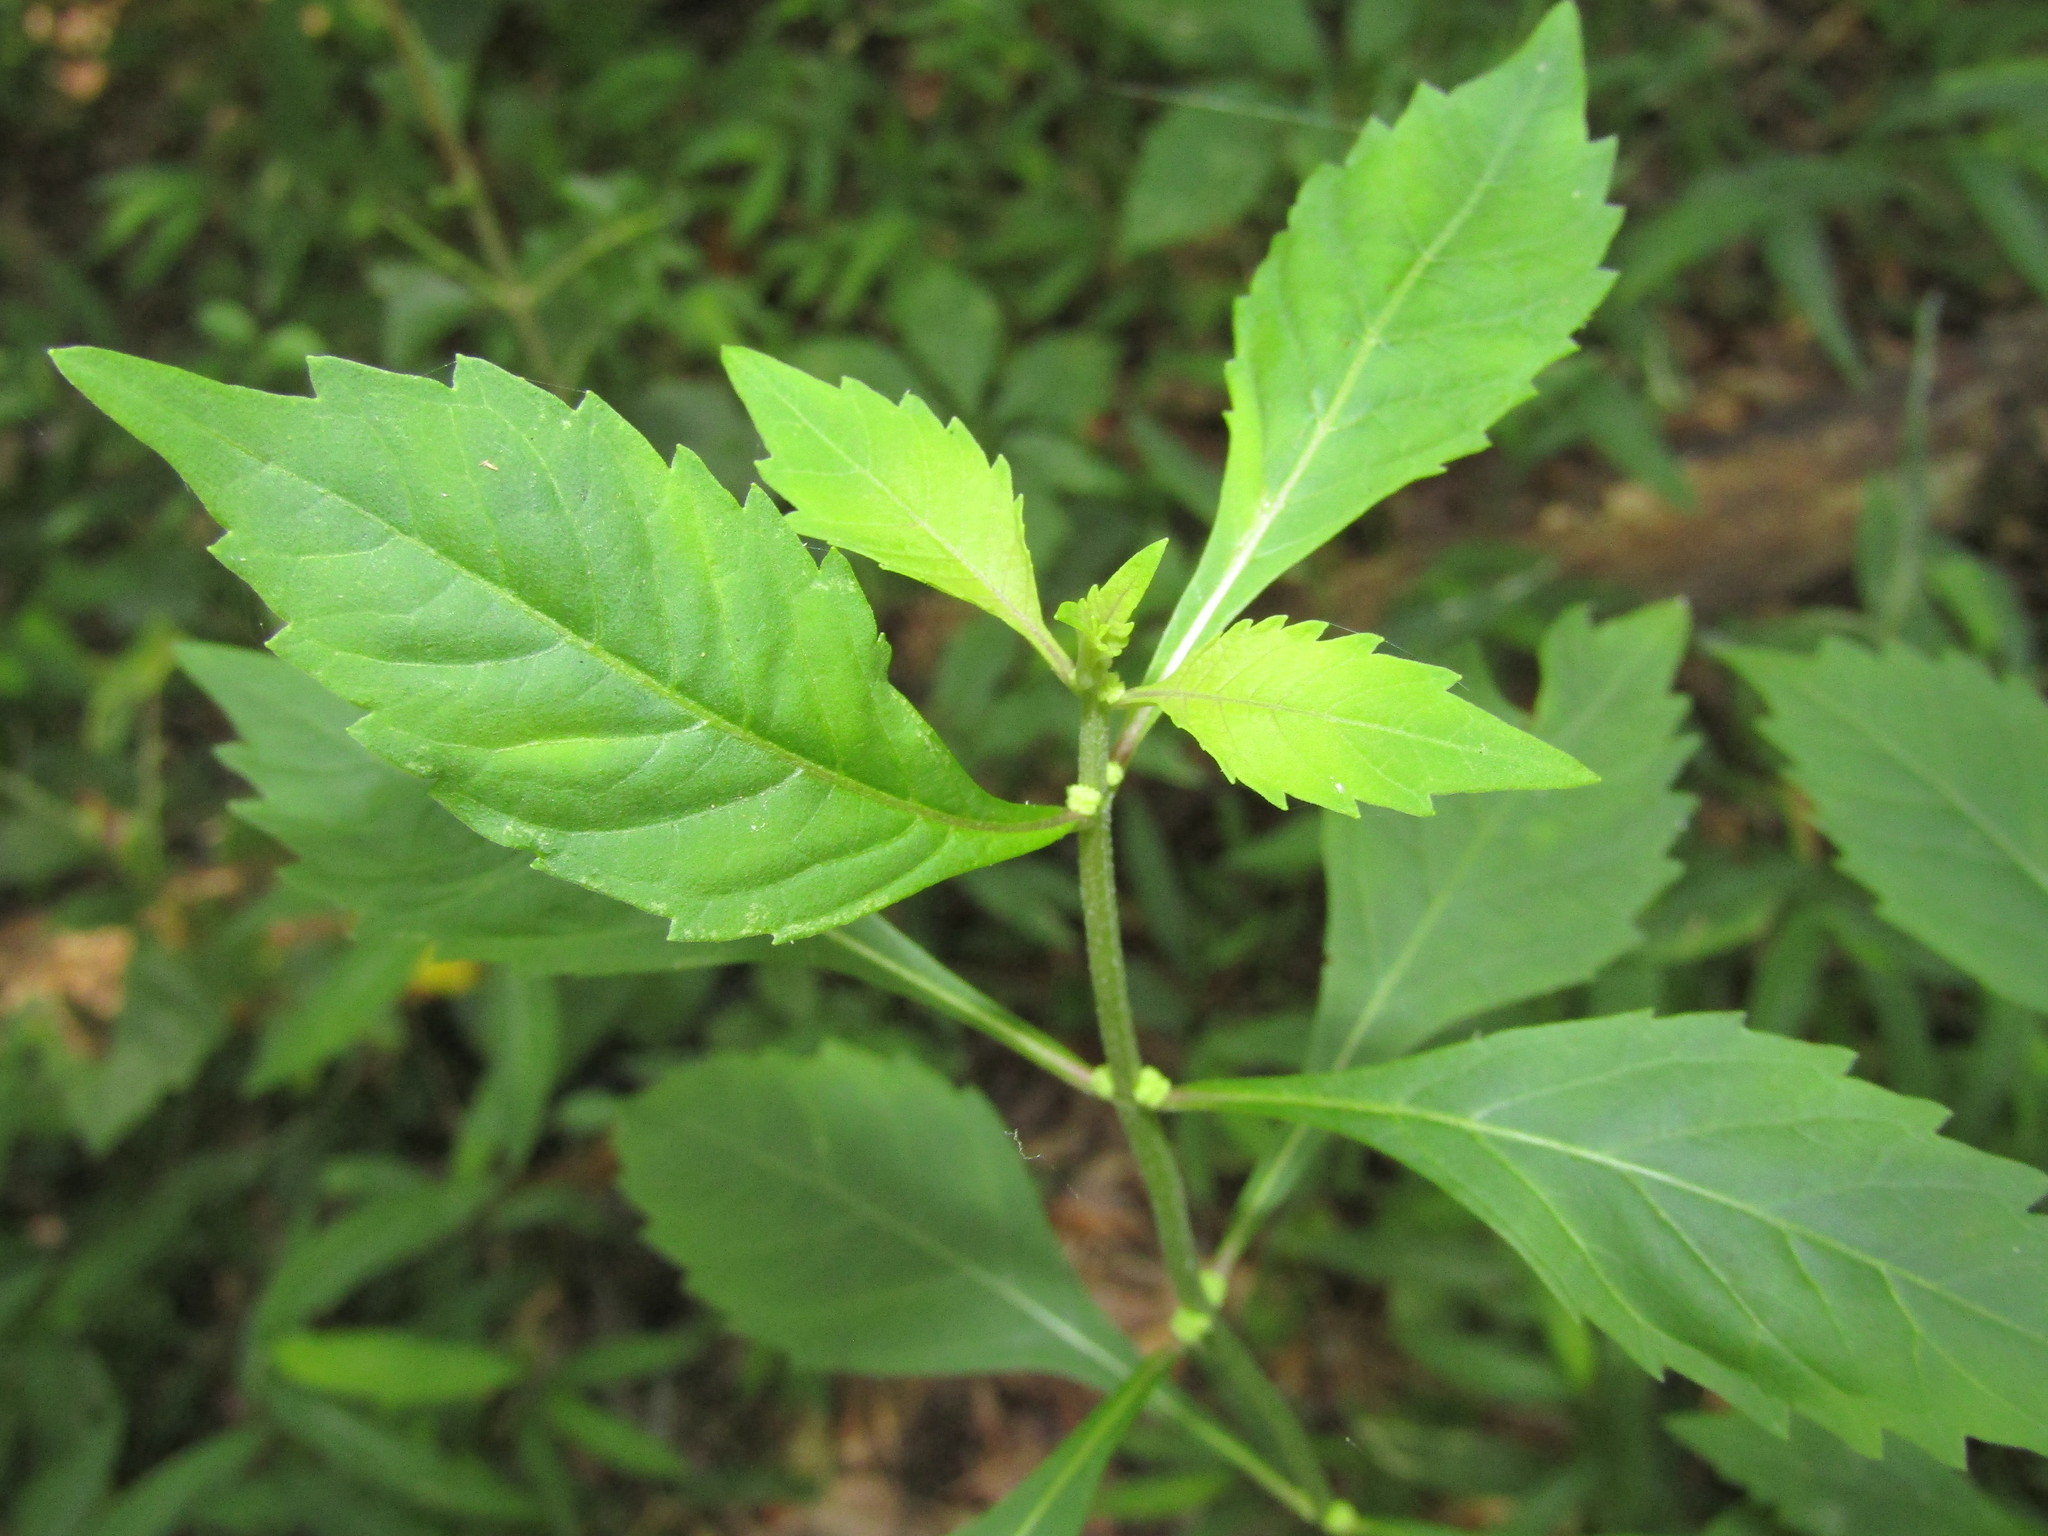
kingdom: Plantae
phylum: Tracheophyta
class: Magnoliopsida
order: Lamiales
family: Lamiaceae
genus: Lycopus
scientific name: Lycopus uniflorus
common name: Northern bugleweed
